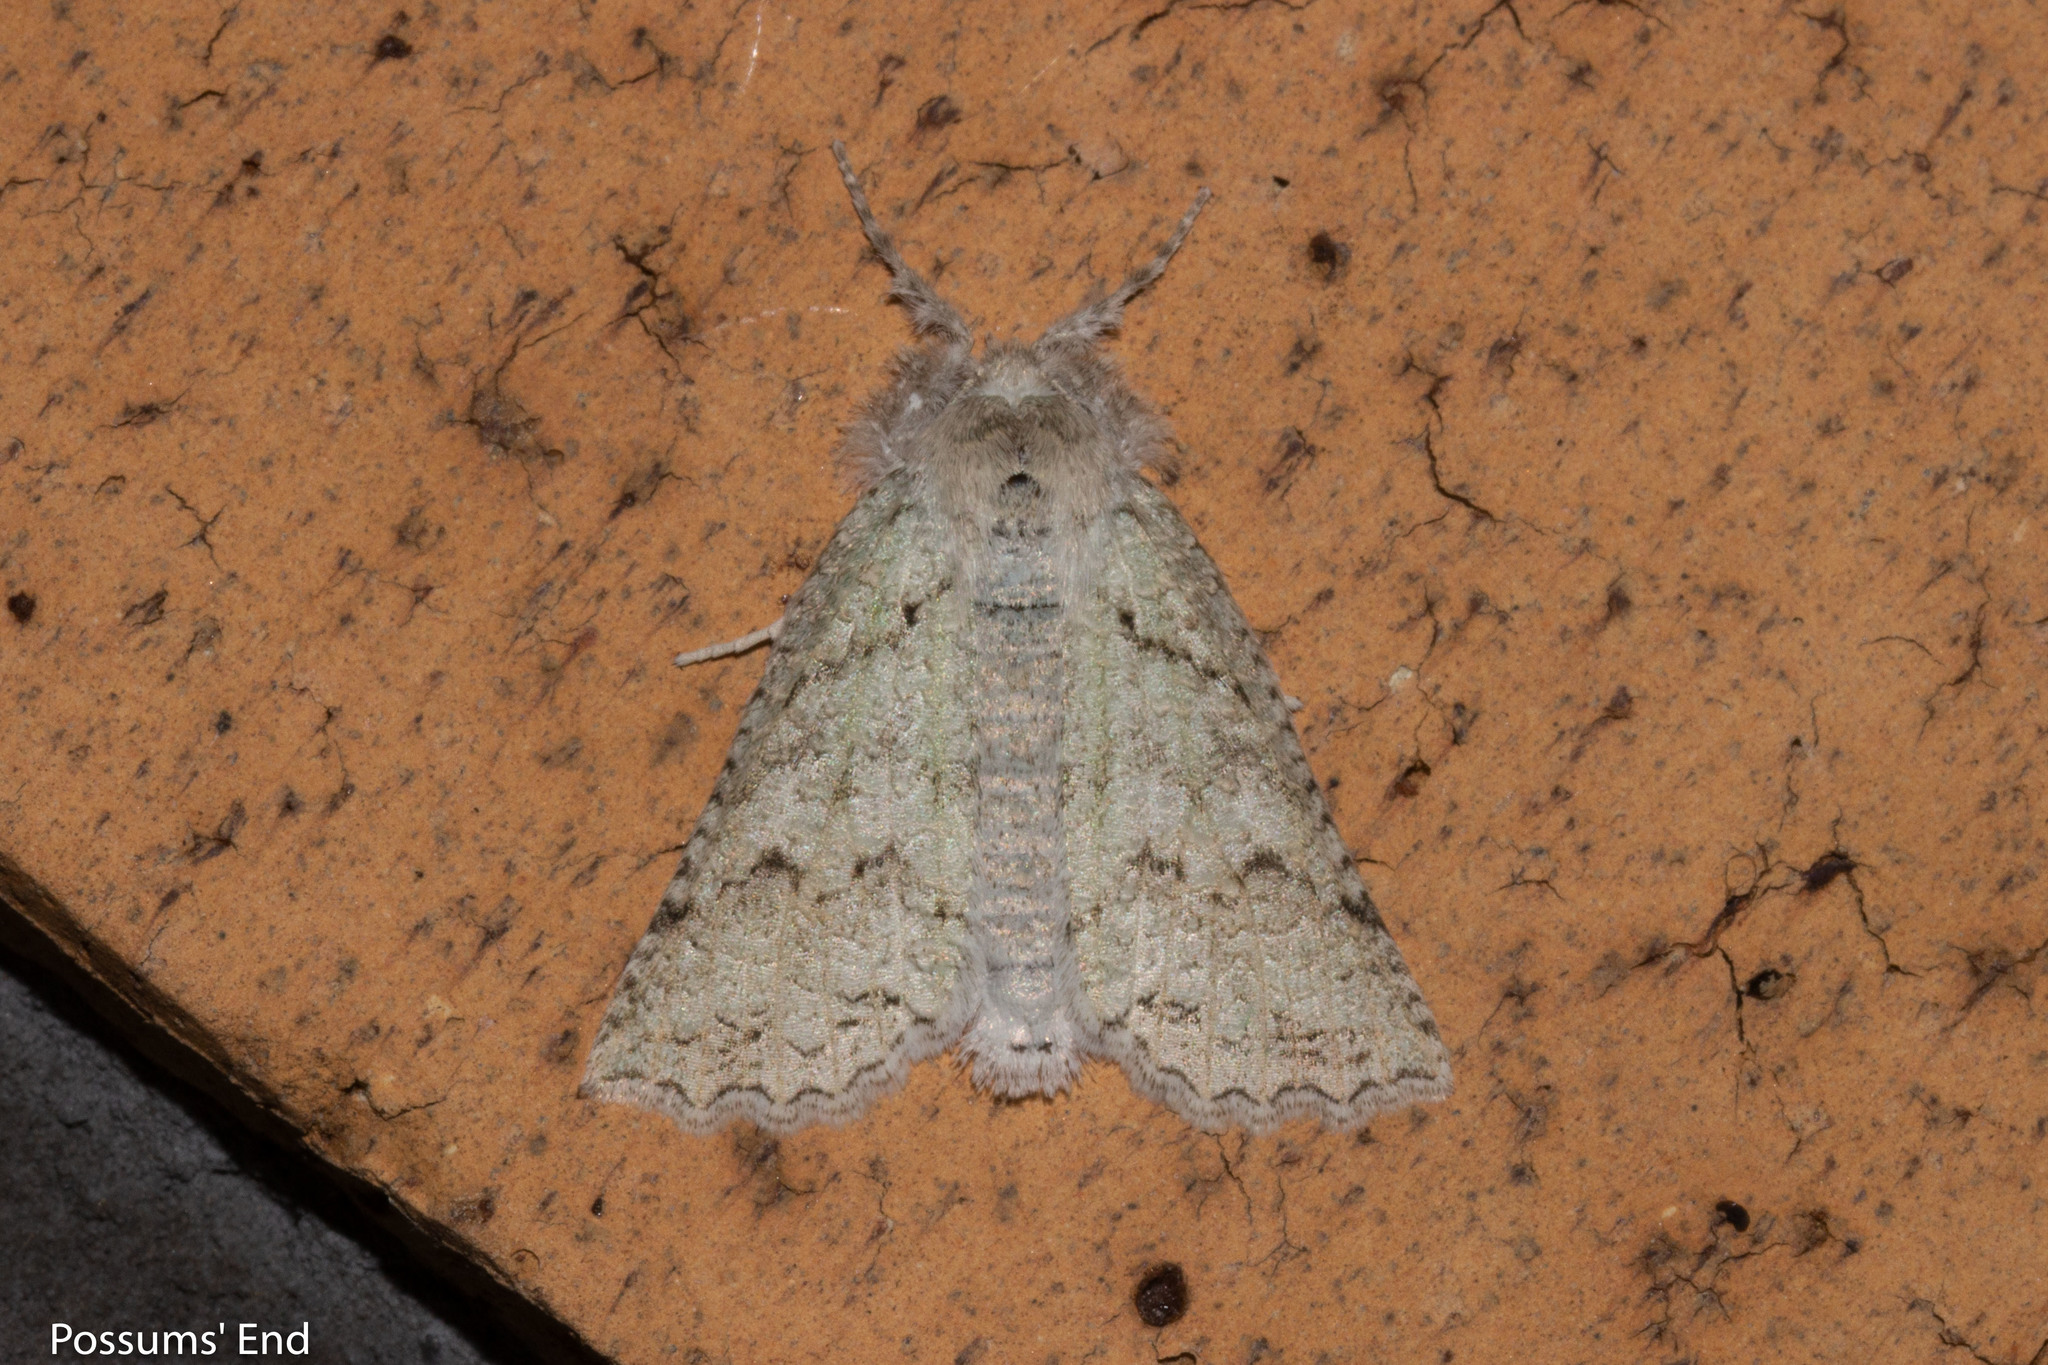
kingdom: Animalia
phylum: Arthropoda
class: Insecta
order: Lepidoptera
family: Geometridae
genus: Declana
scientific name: Declana niveata
